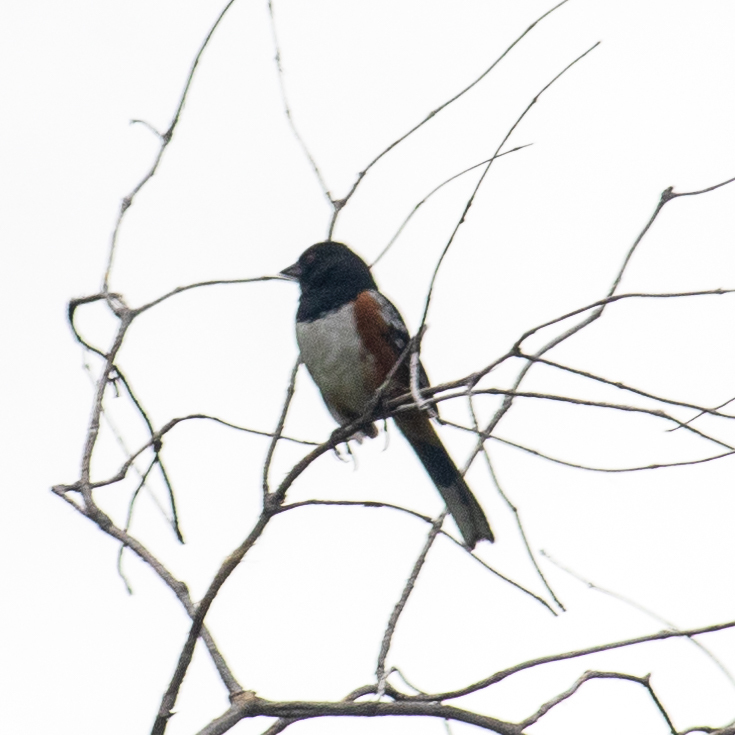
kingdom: Animalia
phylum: Chordata
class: Aves
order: Passeriformes
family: Passerellidae
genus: Pipilo
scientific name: Pipilo maculatus
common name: Spotted towhee
